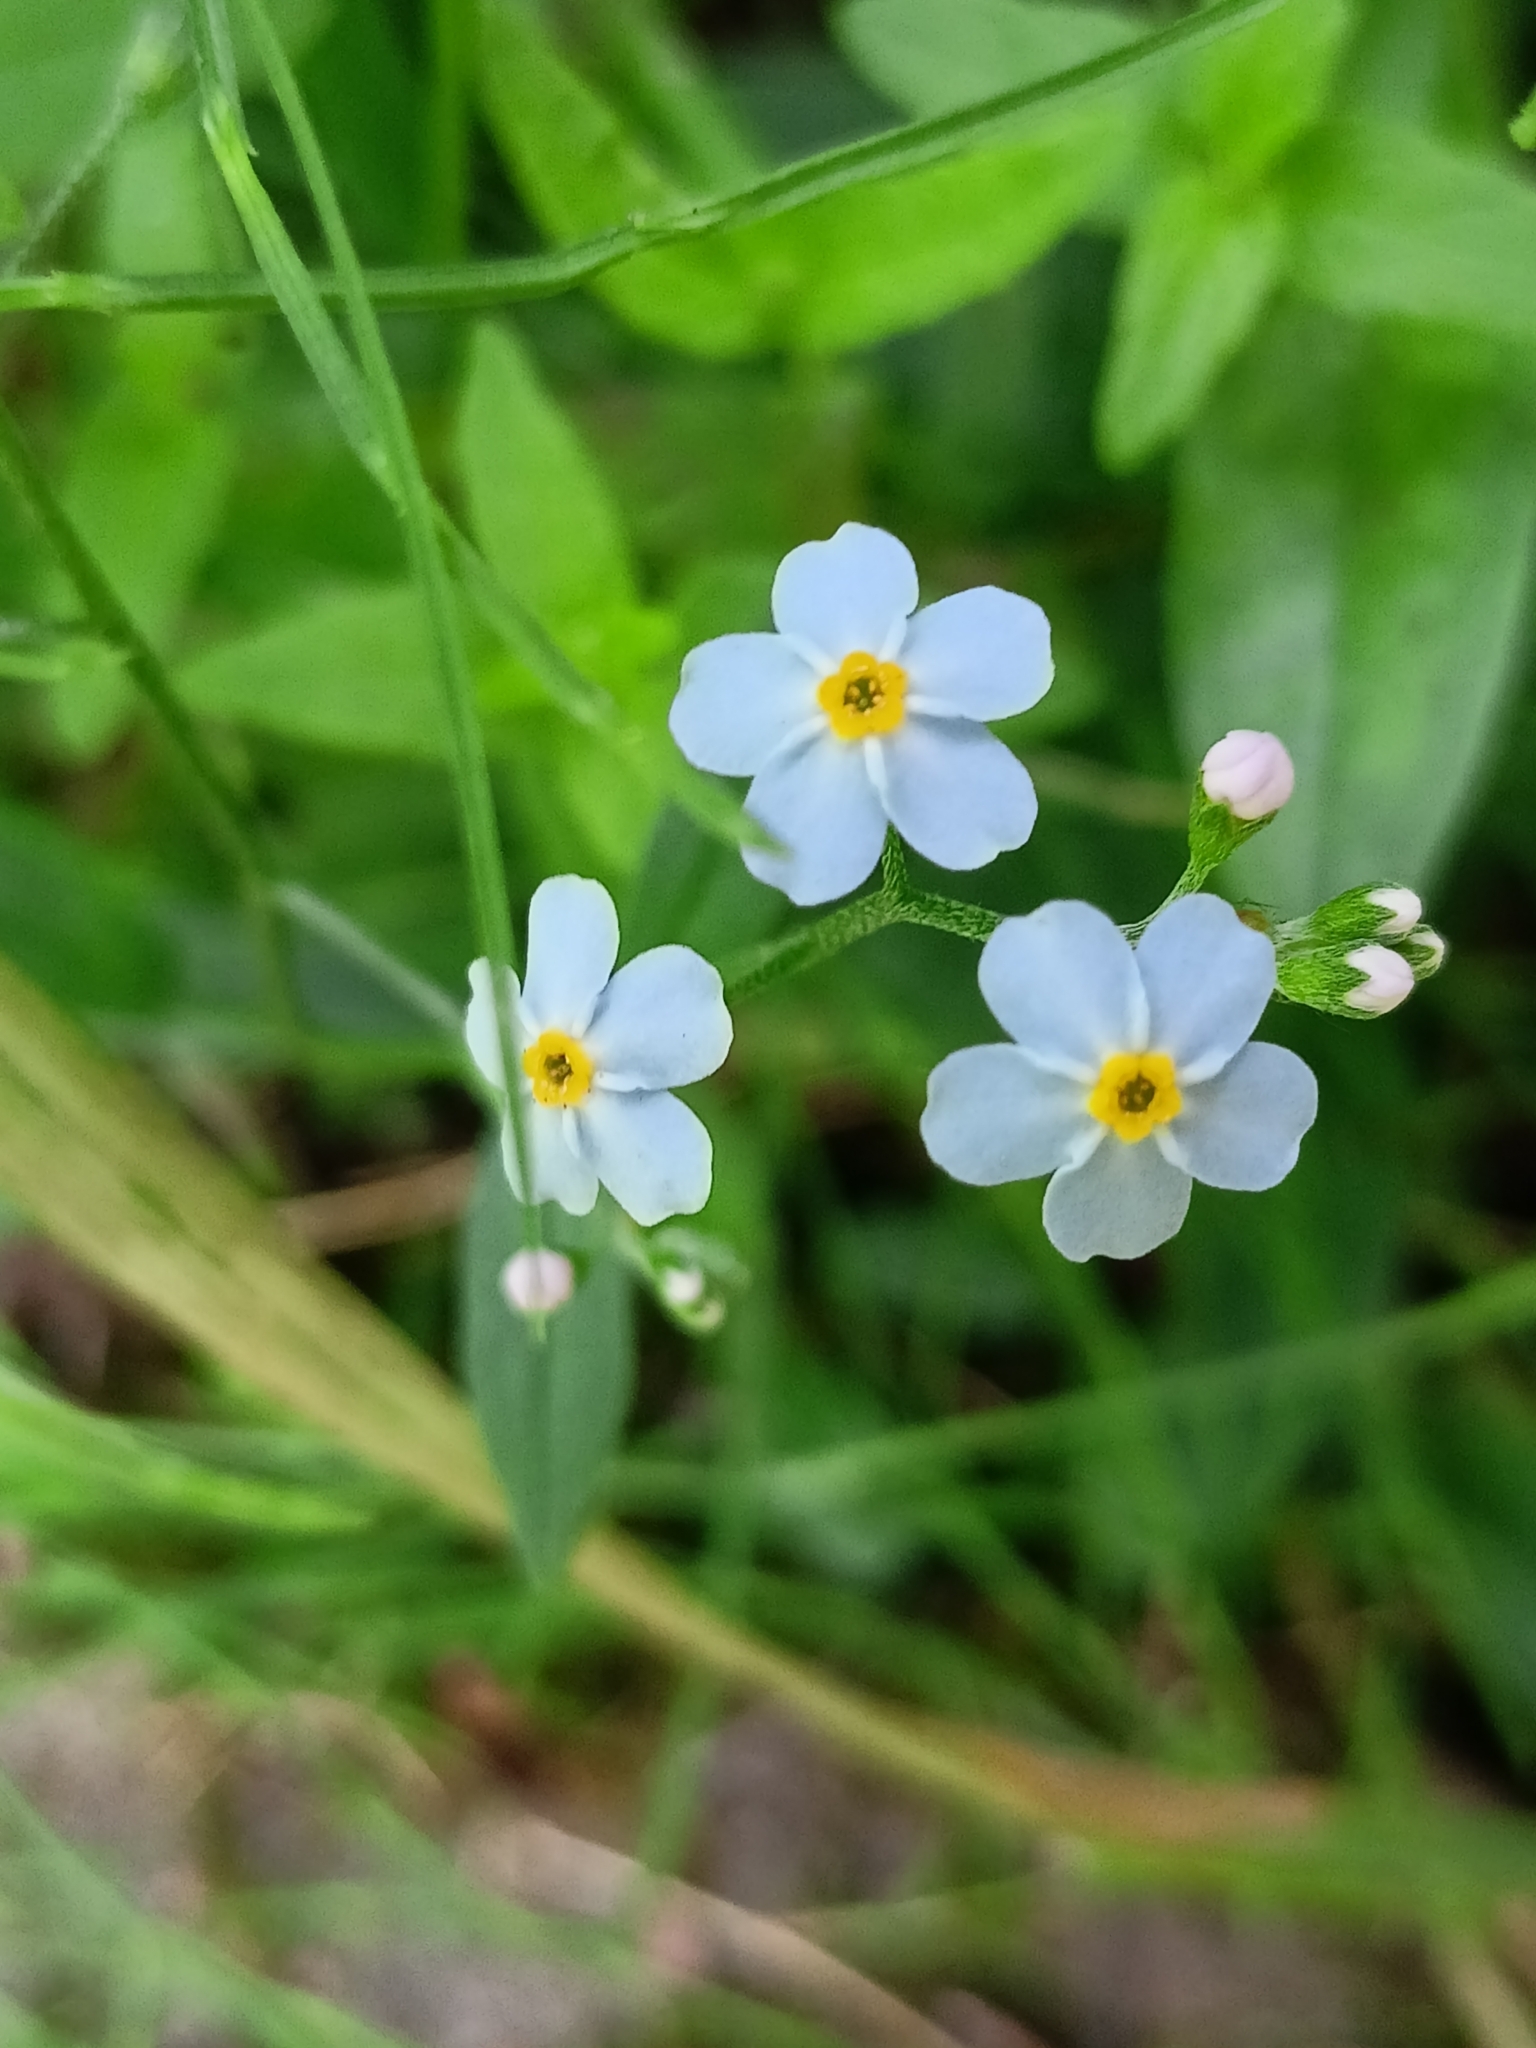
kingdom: Plantae
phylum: Tracheophyta
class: Magnoliopsida
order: Boraginales
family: Boraginaceae
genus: Myosotis
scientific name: Myosotis scorpioides
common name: Water forget-me-not
